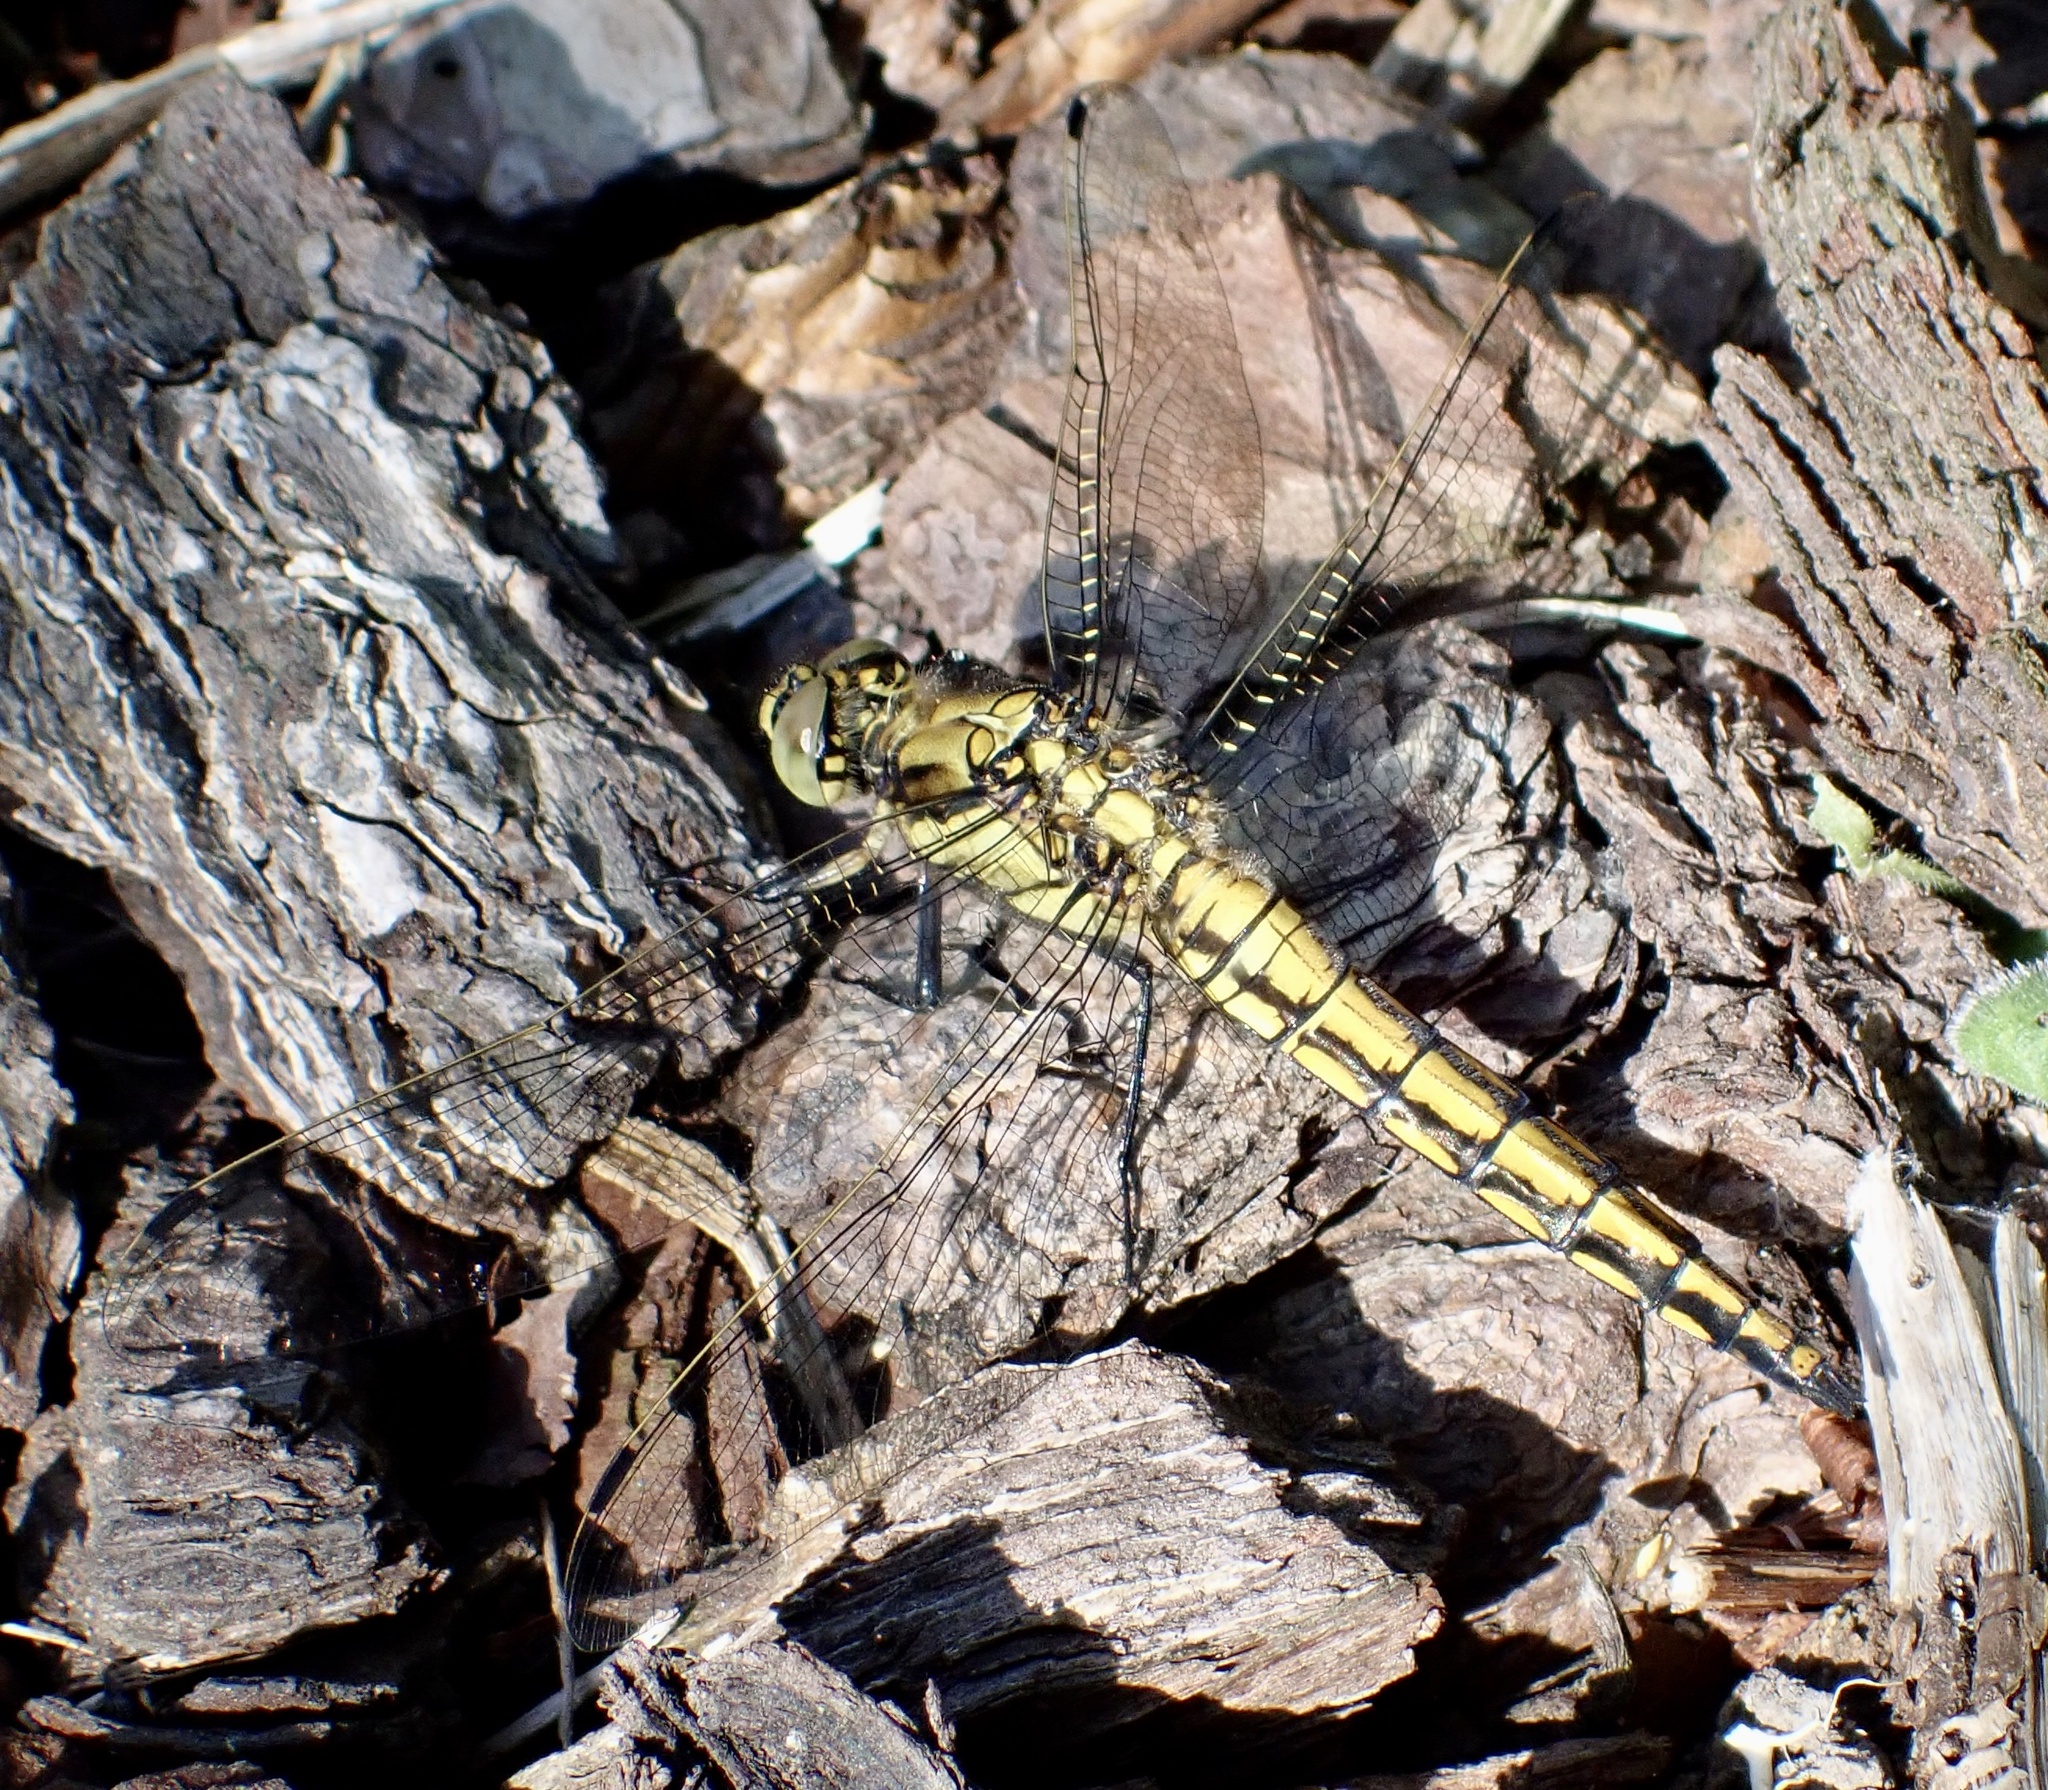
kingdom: Animalia
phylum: Arthropoda
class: Insecta
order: Odonata
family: Libellulidae
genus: Orthetrum
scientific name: Orthetrum cancellatum
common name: Black-tailed skimmer
